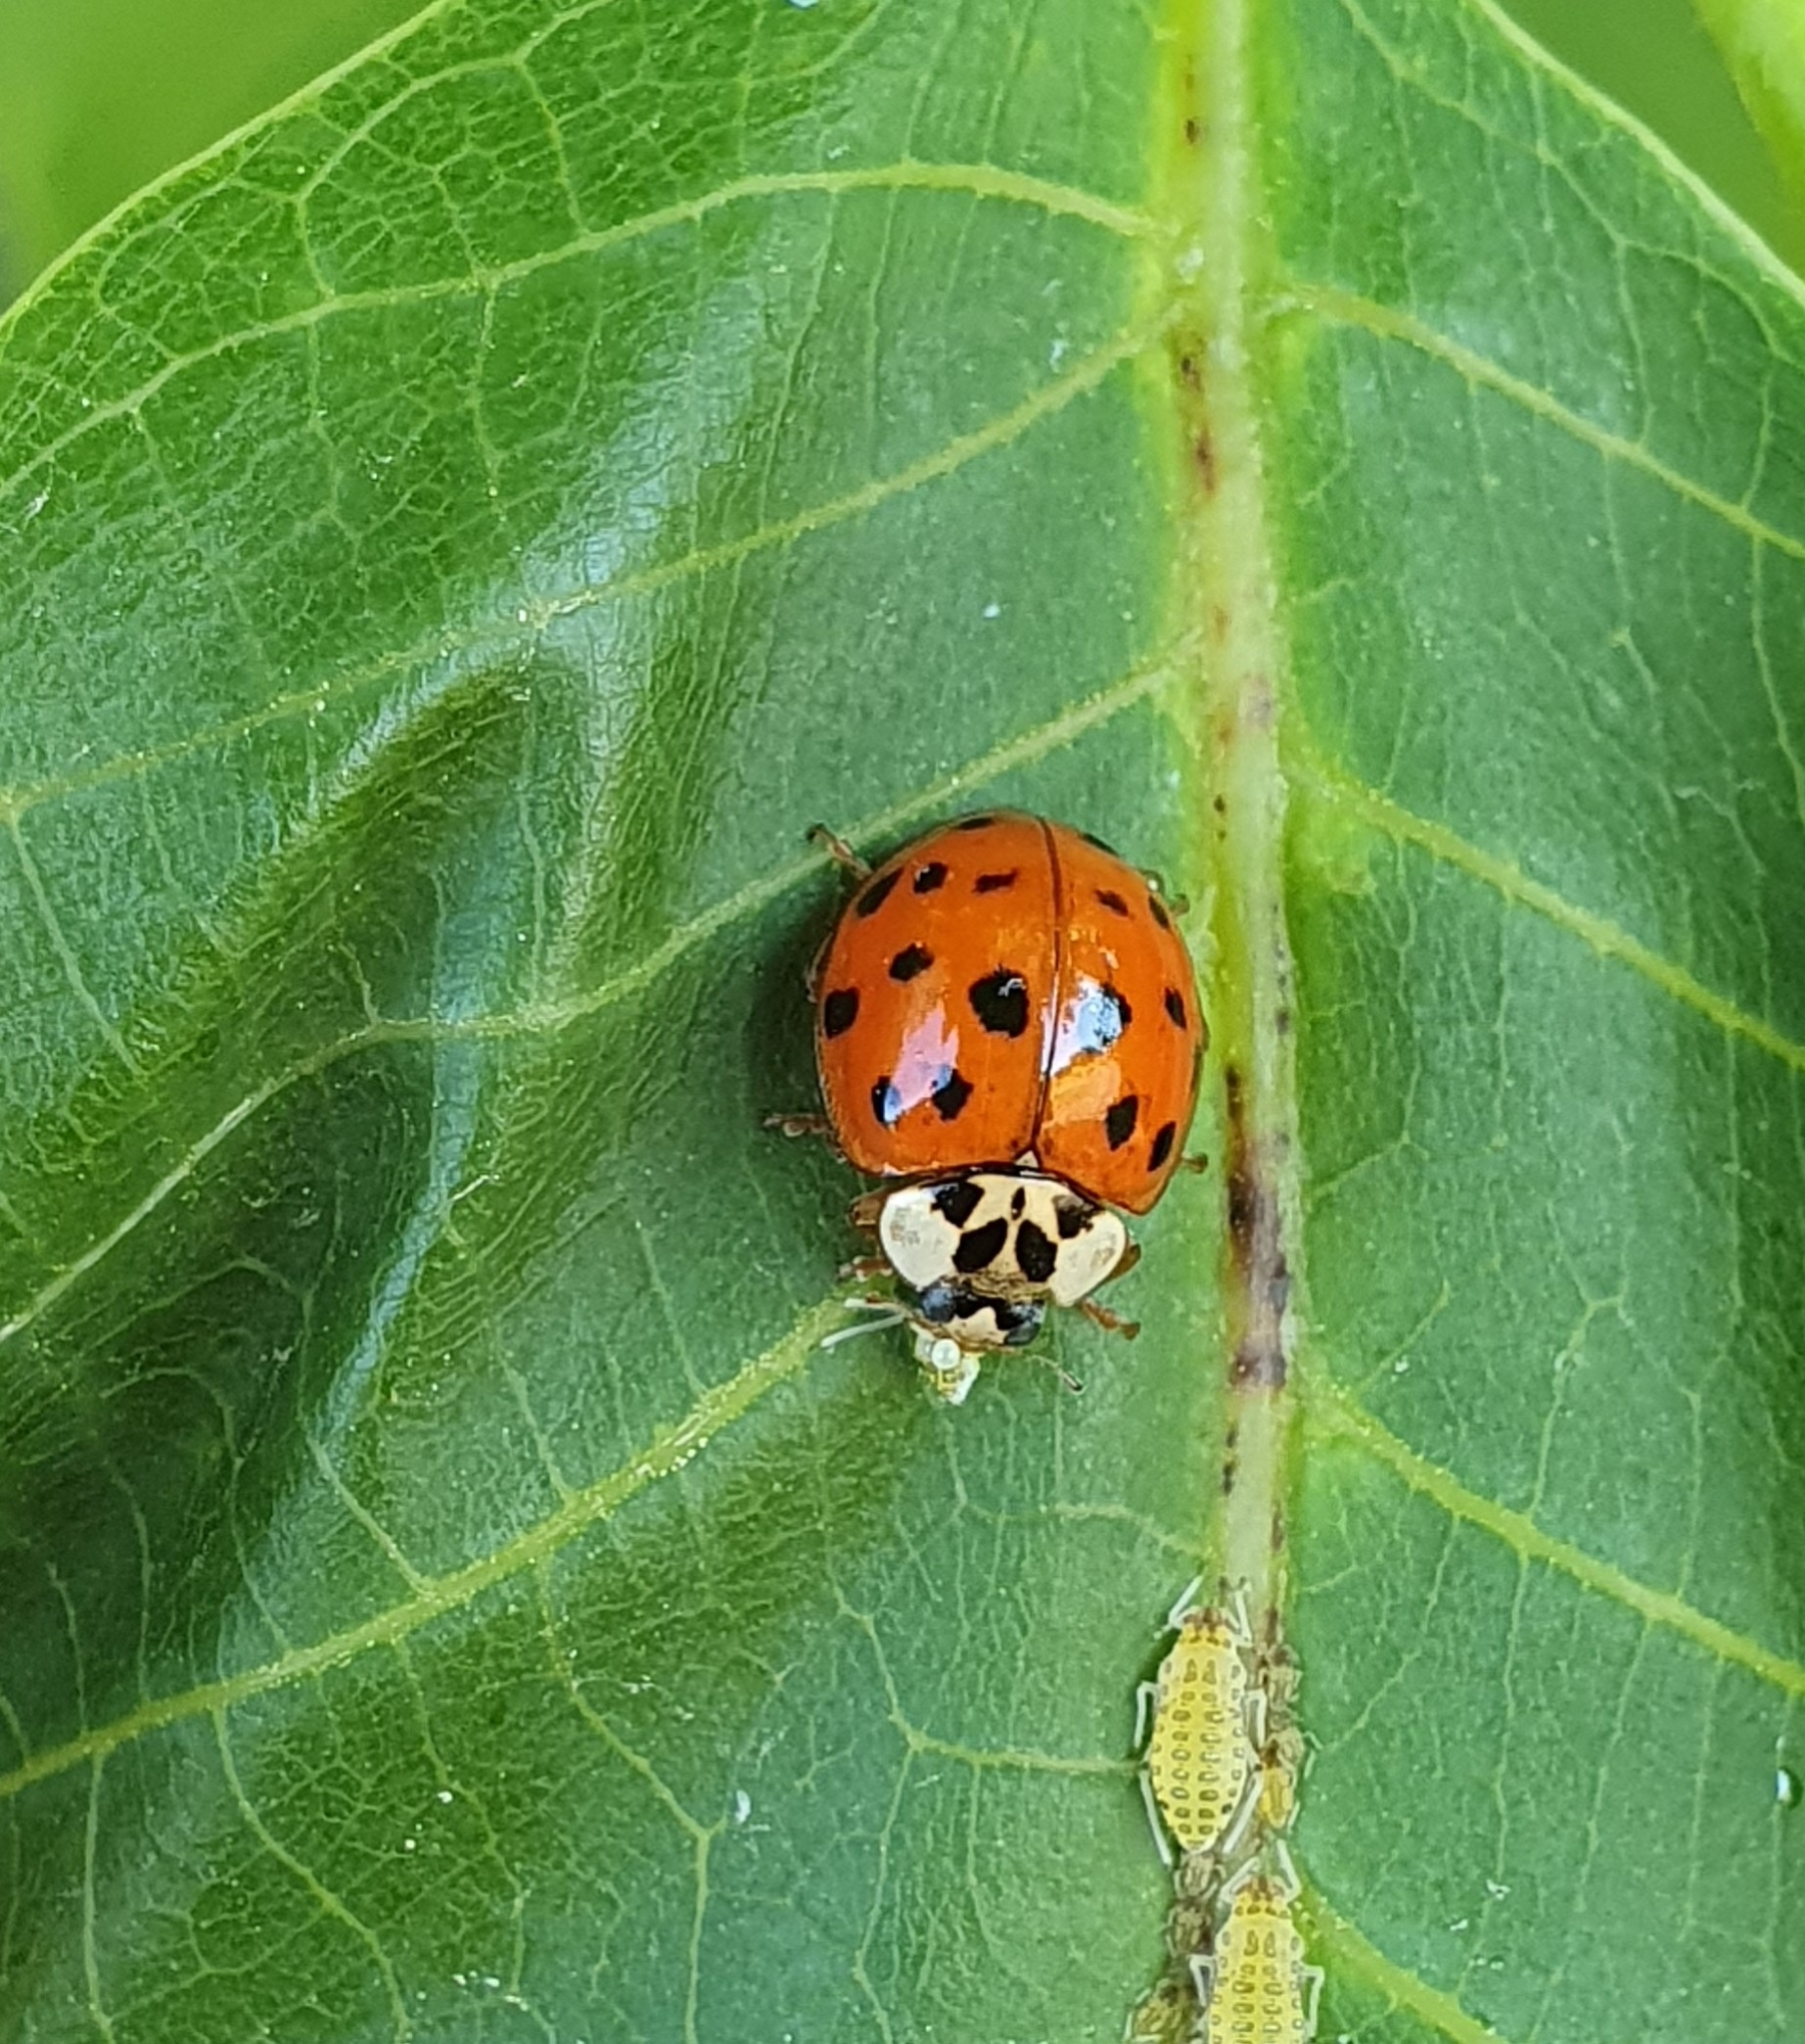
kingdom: Animalia
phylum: Arthropoda
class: Insecta
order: Coleoptera
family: Coccinellidae
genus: Harmonia
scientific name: Harmonia axyridis
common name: Harlequin ladybird
